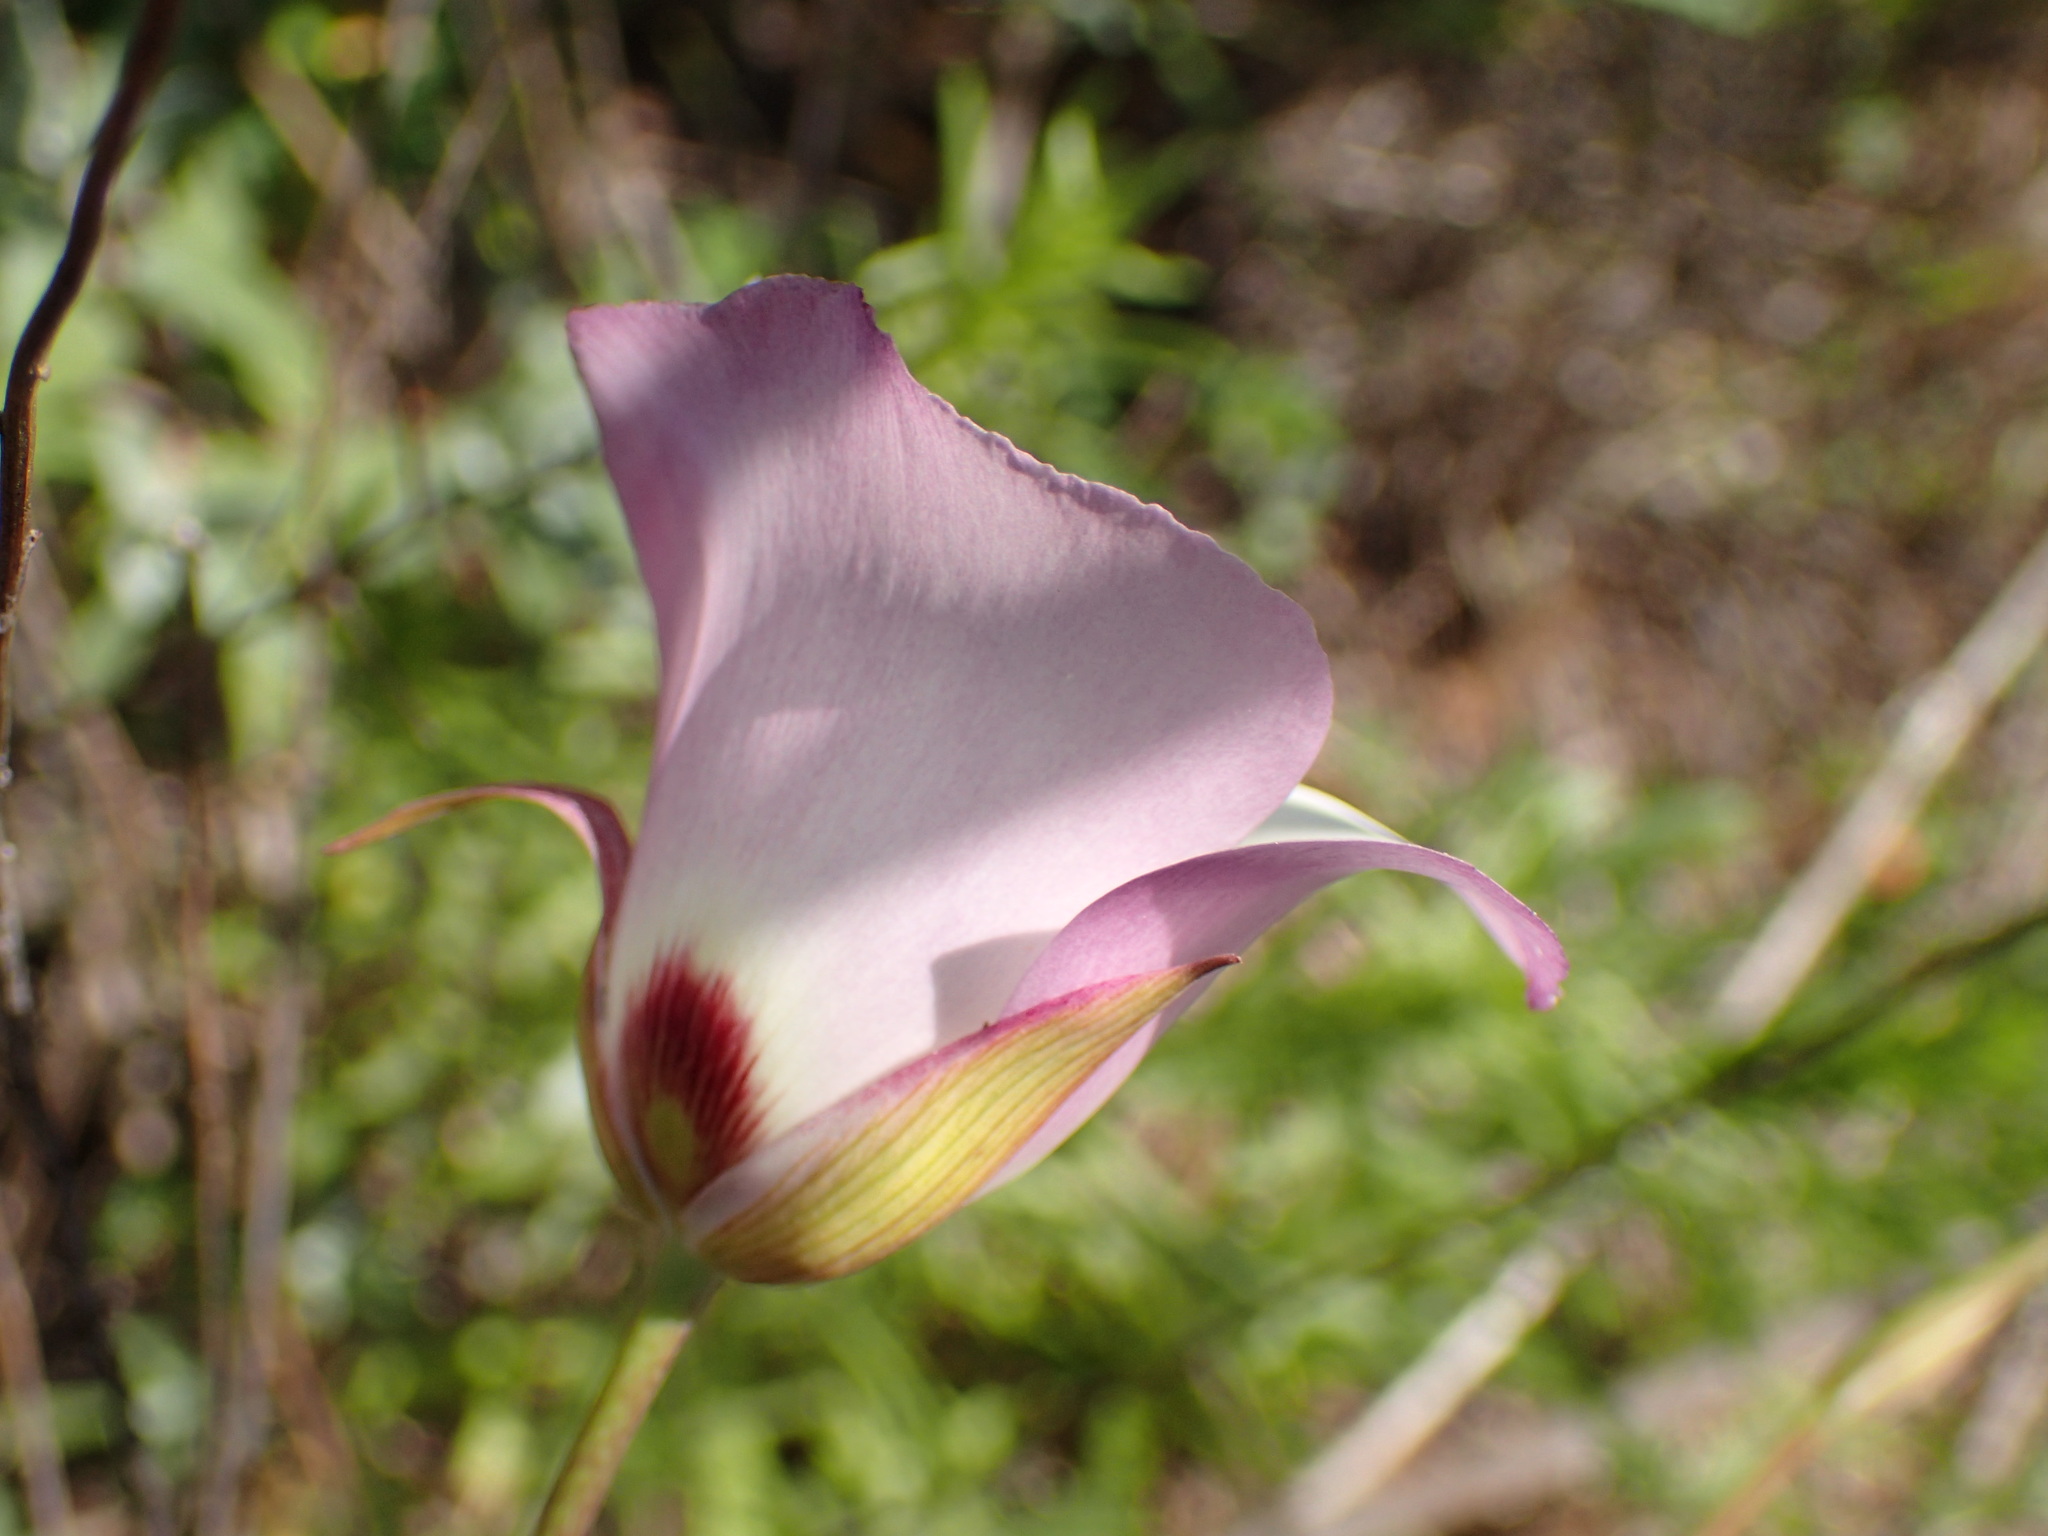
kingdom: Plantae
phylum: Tracheophyta
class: Liliopsida
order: Liliales
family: Liliaceae
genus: Calochortus
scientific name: Calochortus catalinae
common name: Catalina mariposa-lily
